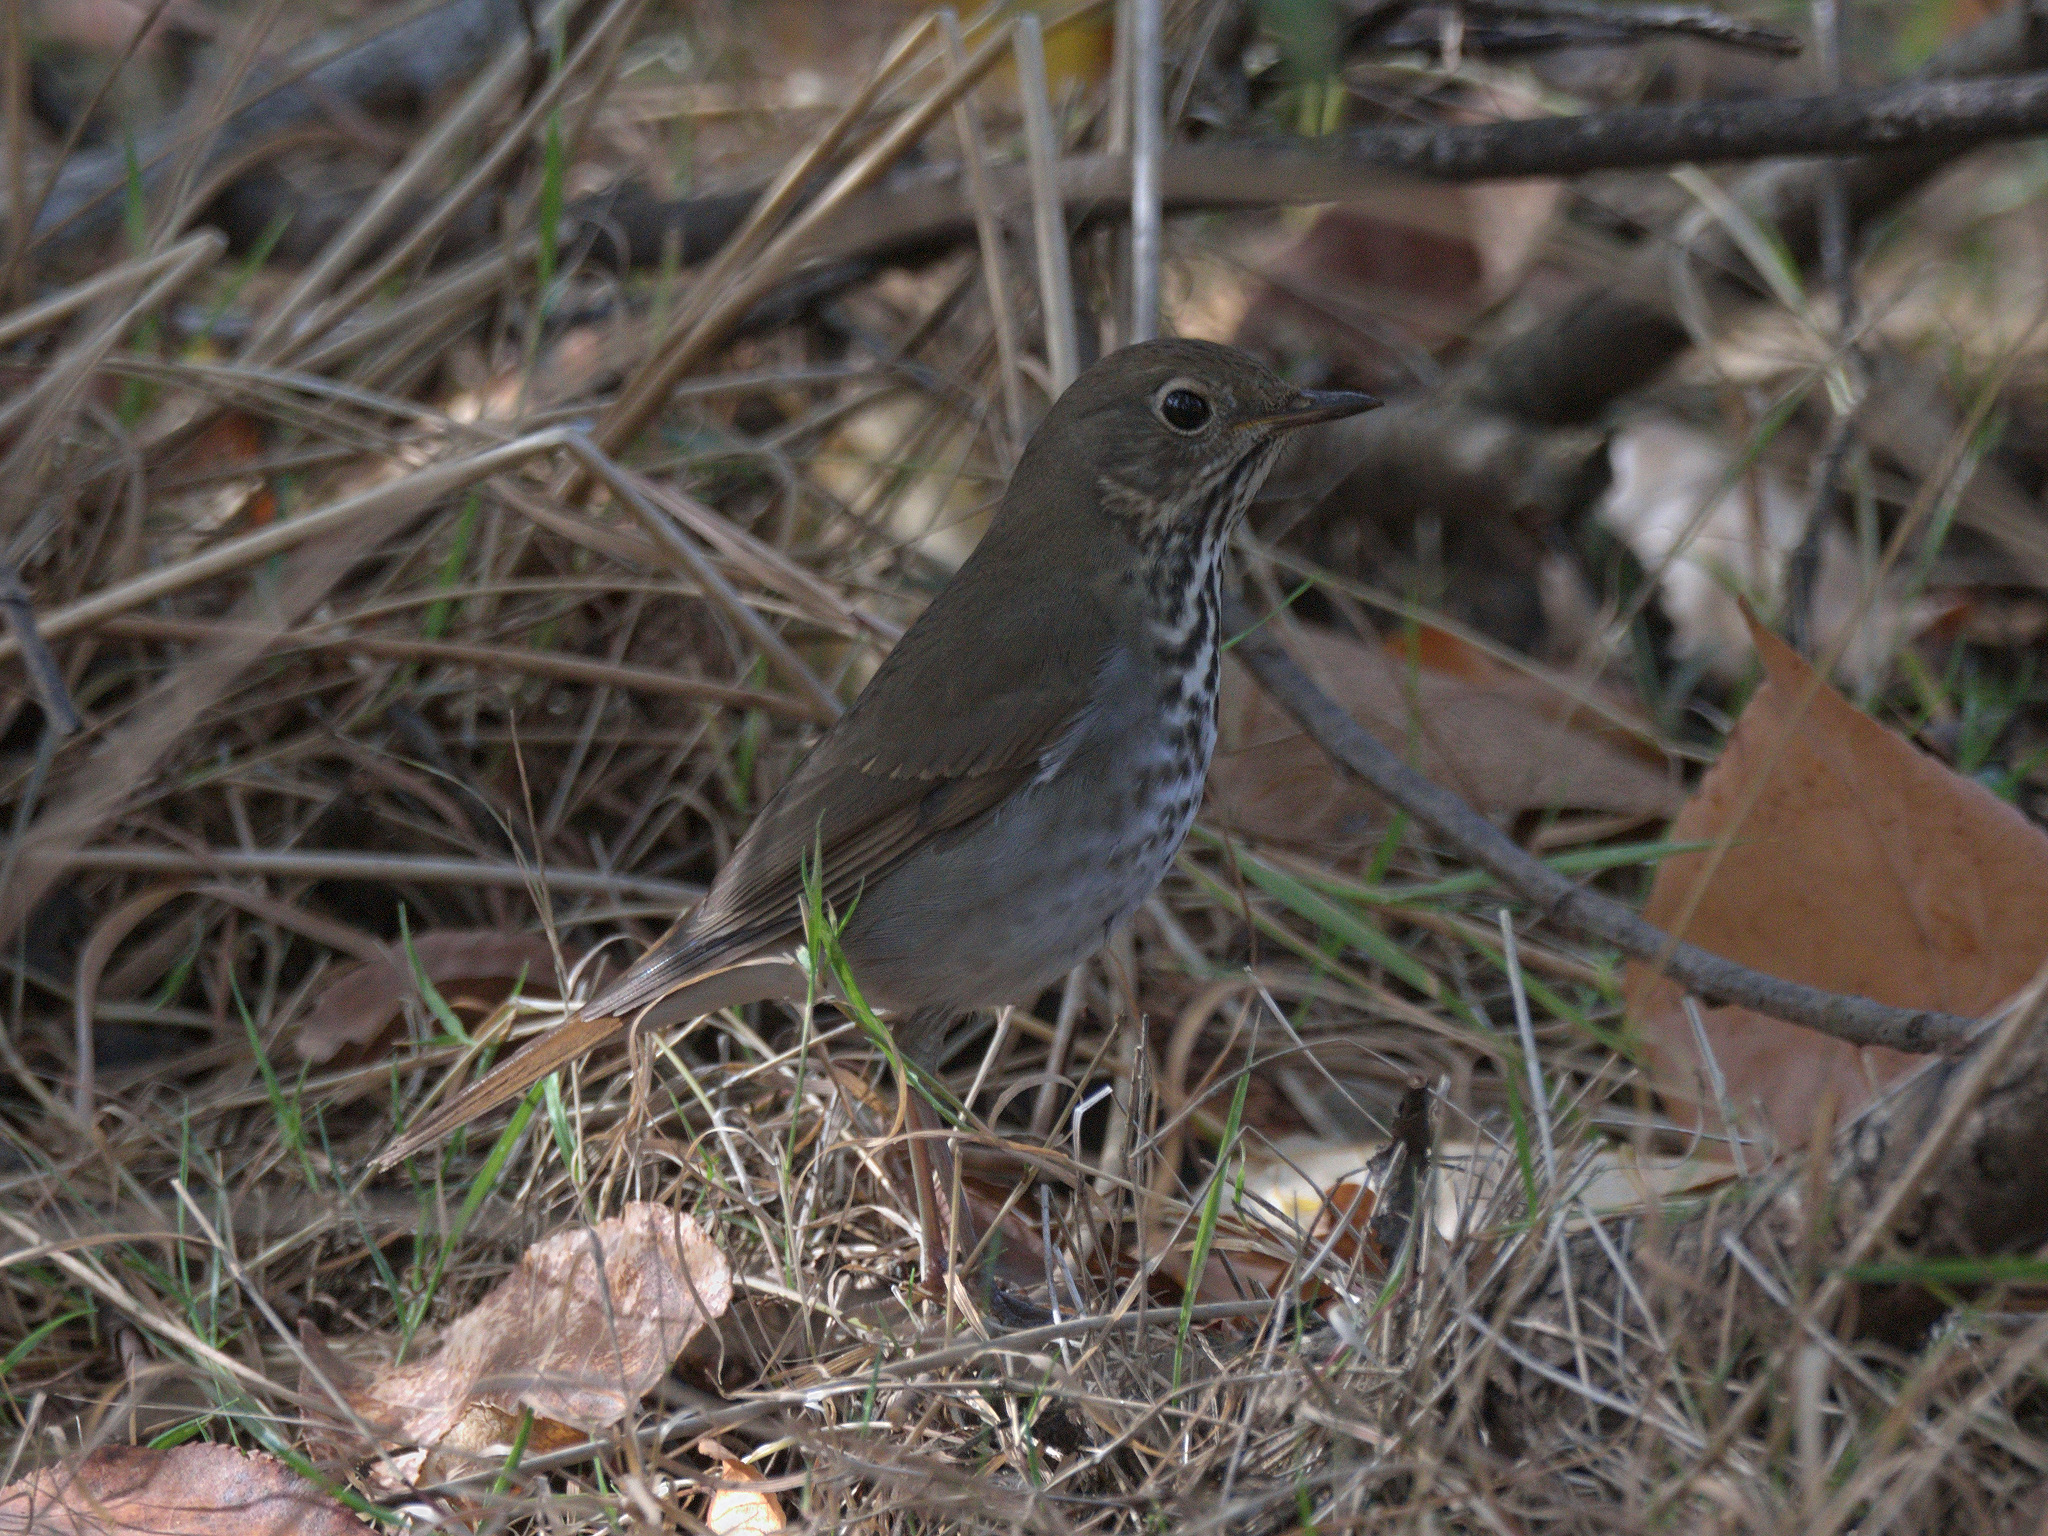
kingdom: Animalia
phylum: Chordata
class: Aves
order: Passeriformes
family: Turdidae
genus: Catharus
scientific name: Catharus guttatus
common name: Hermit thrush
